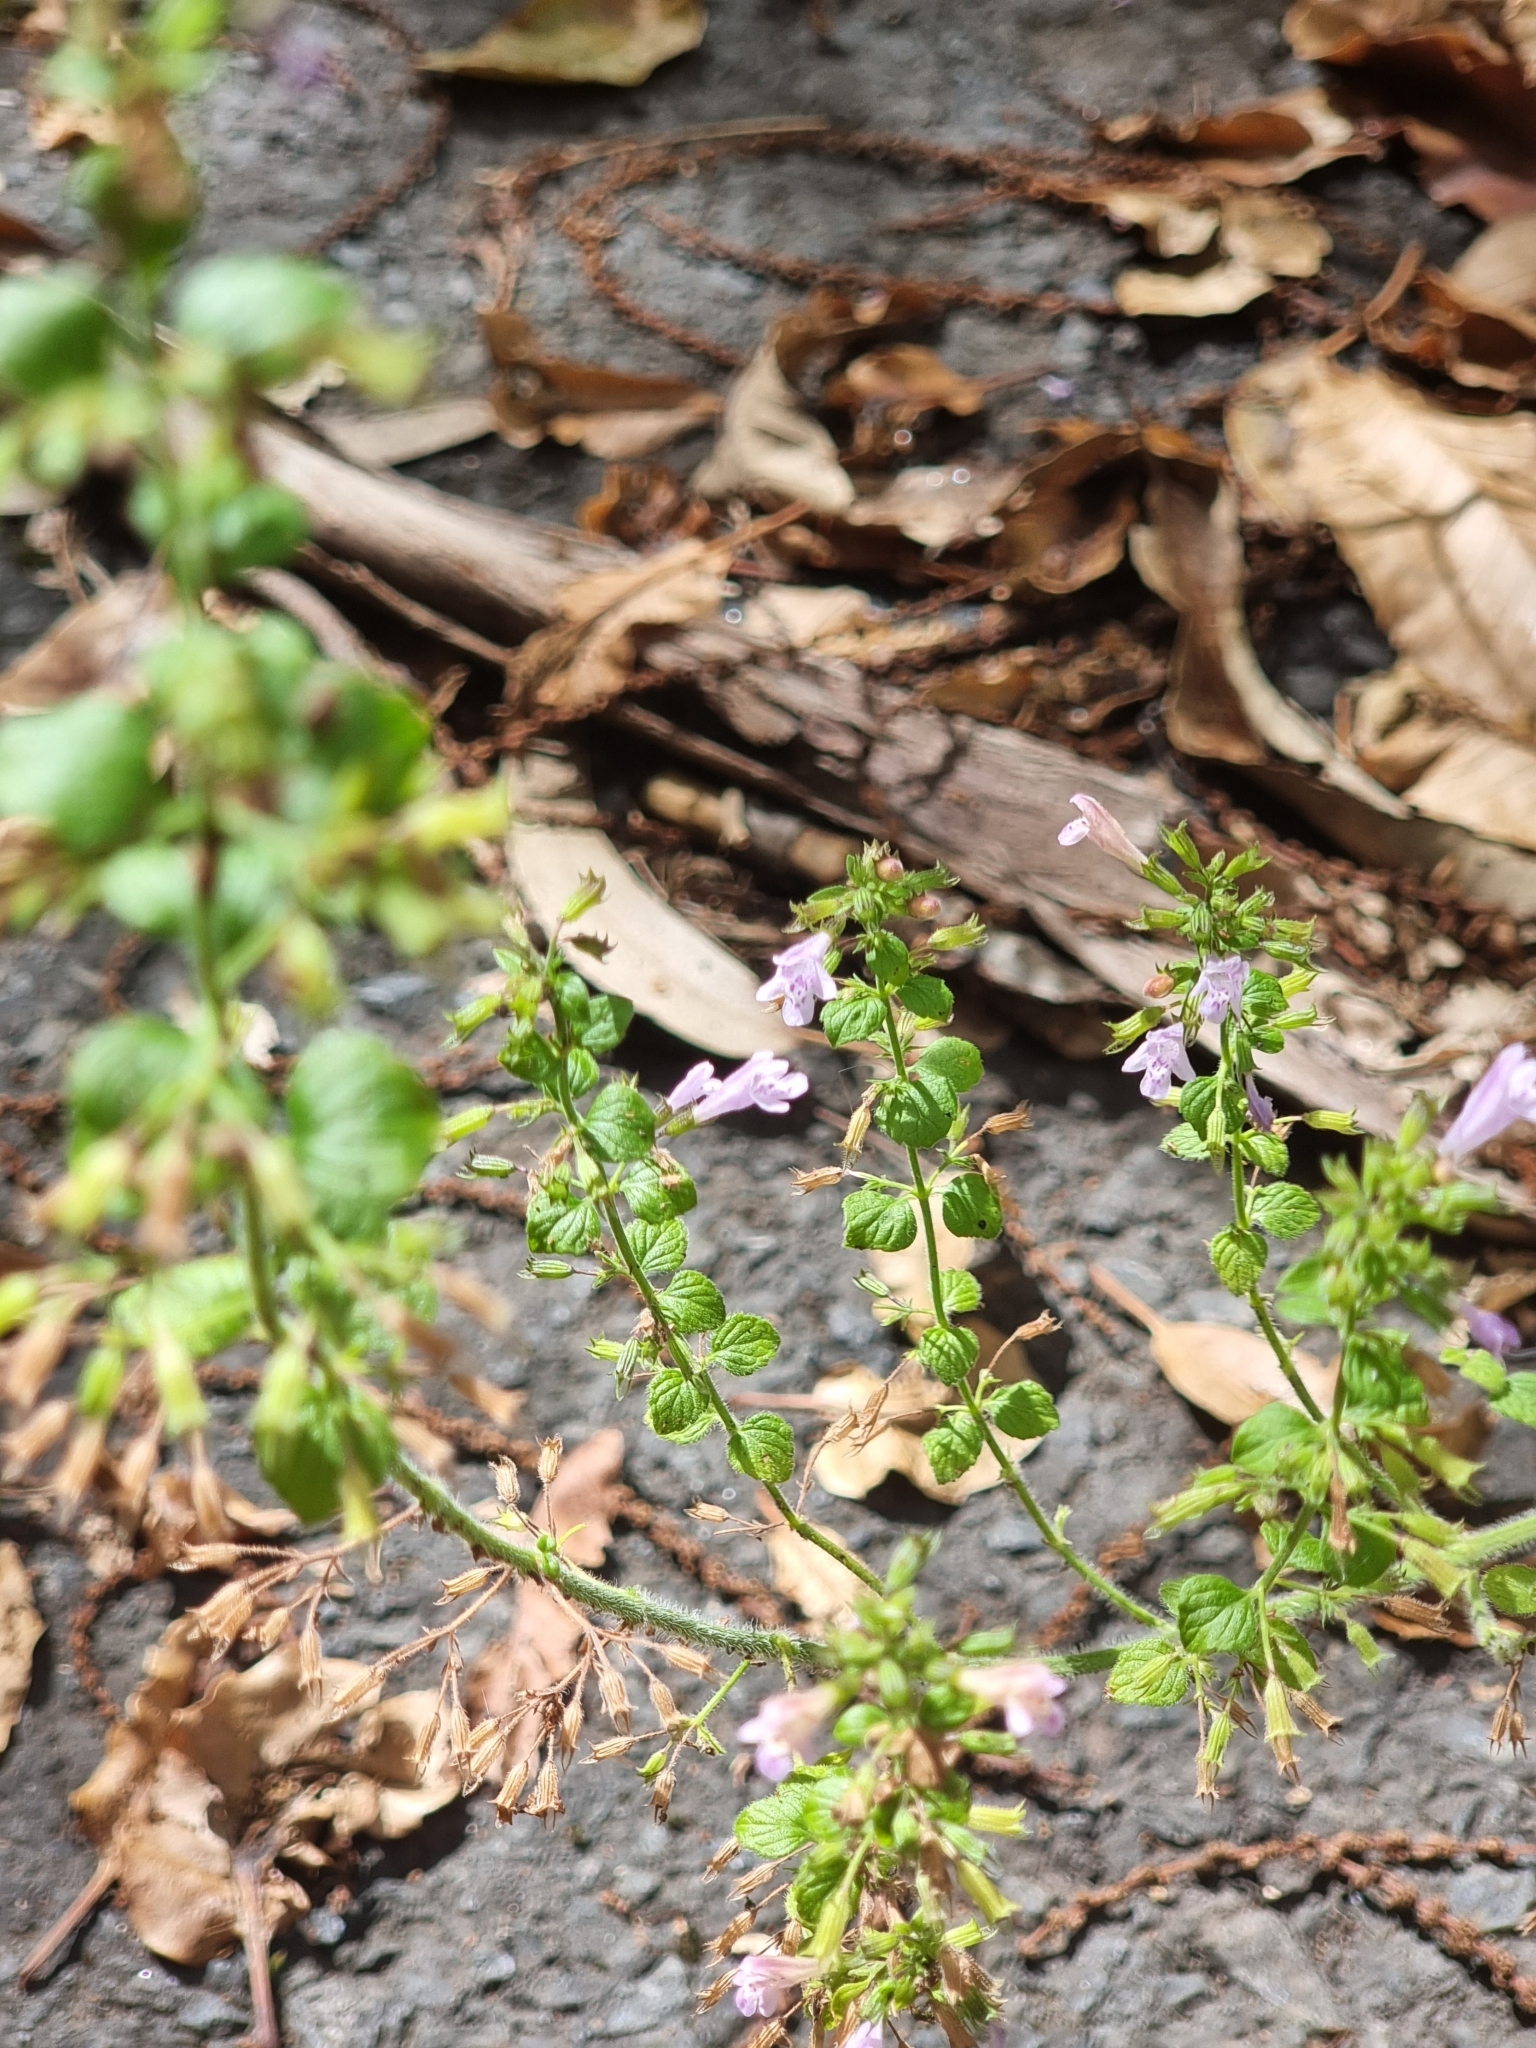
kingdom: Plantae
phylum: Tracheophyta
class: Magnoliopsida
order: Lamiales
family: Lamiaceae
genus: Clinopodium
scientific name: Clinopodium menthifolium
